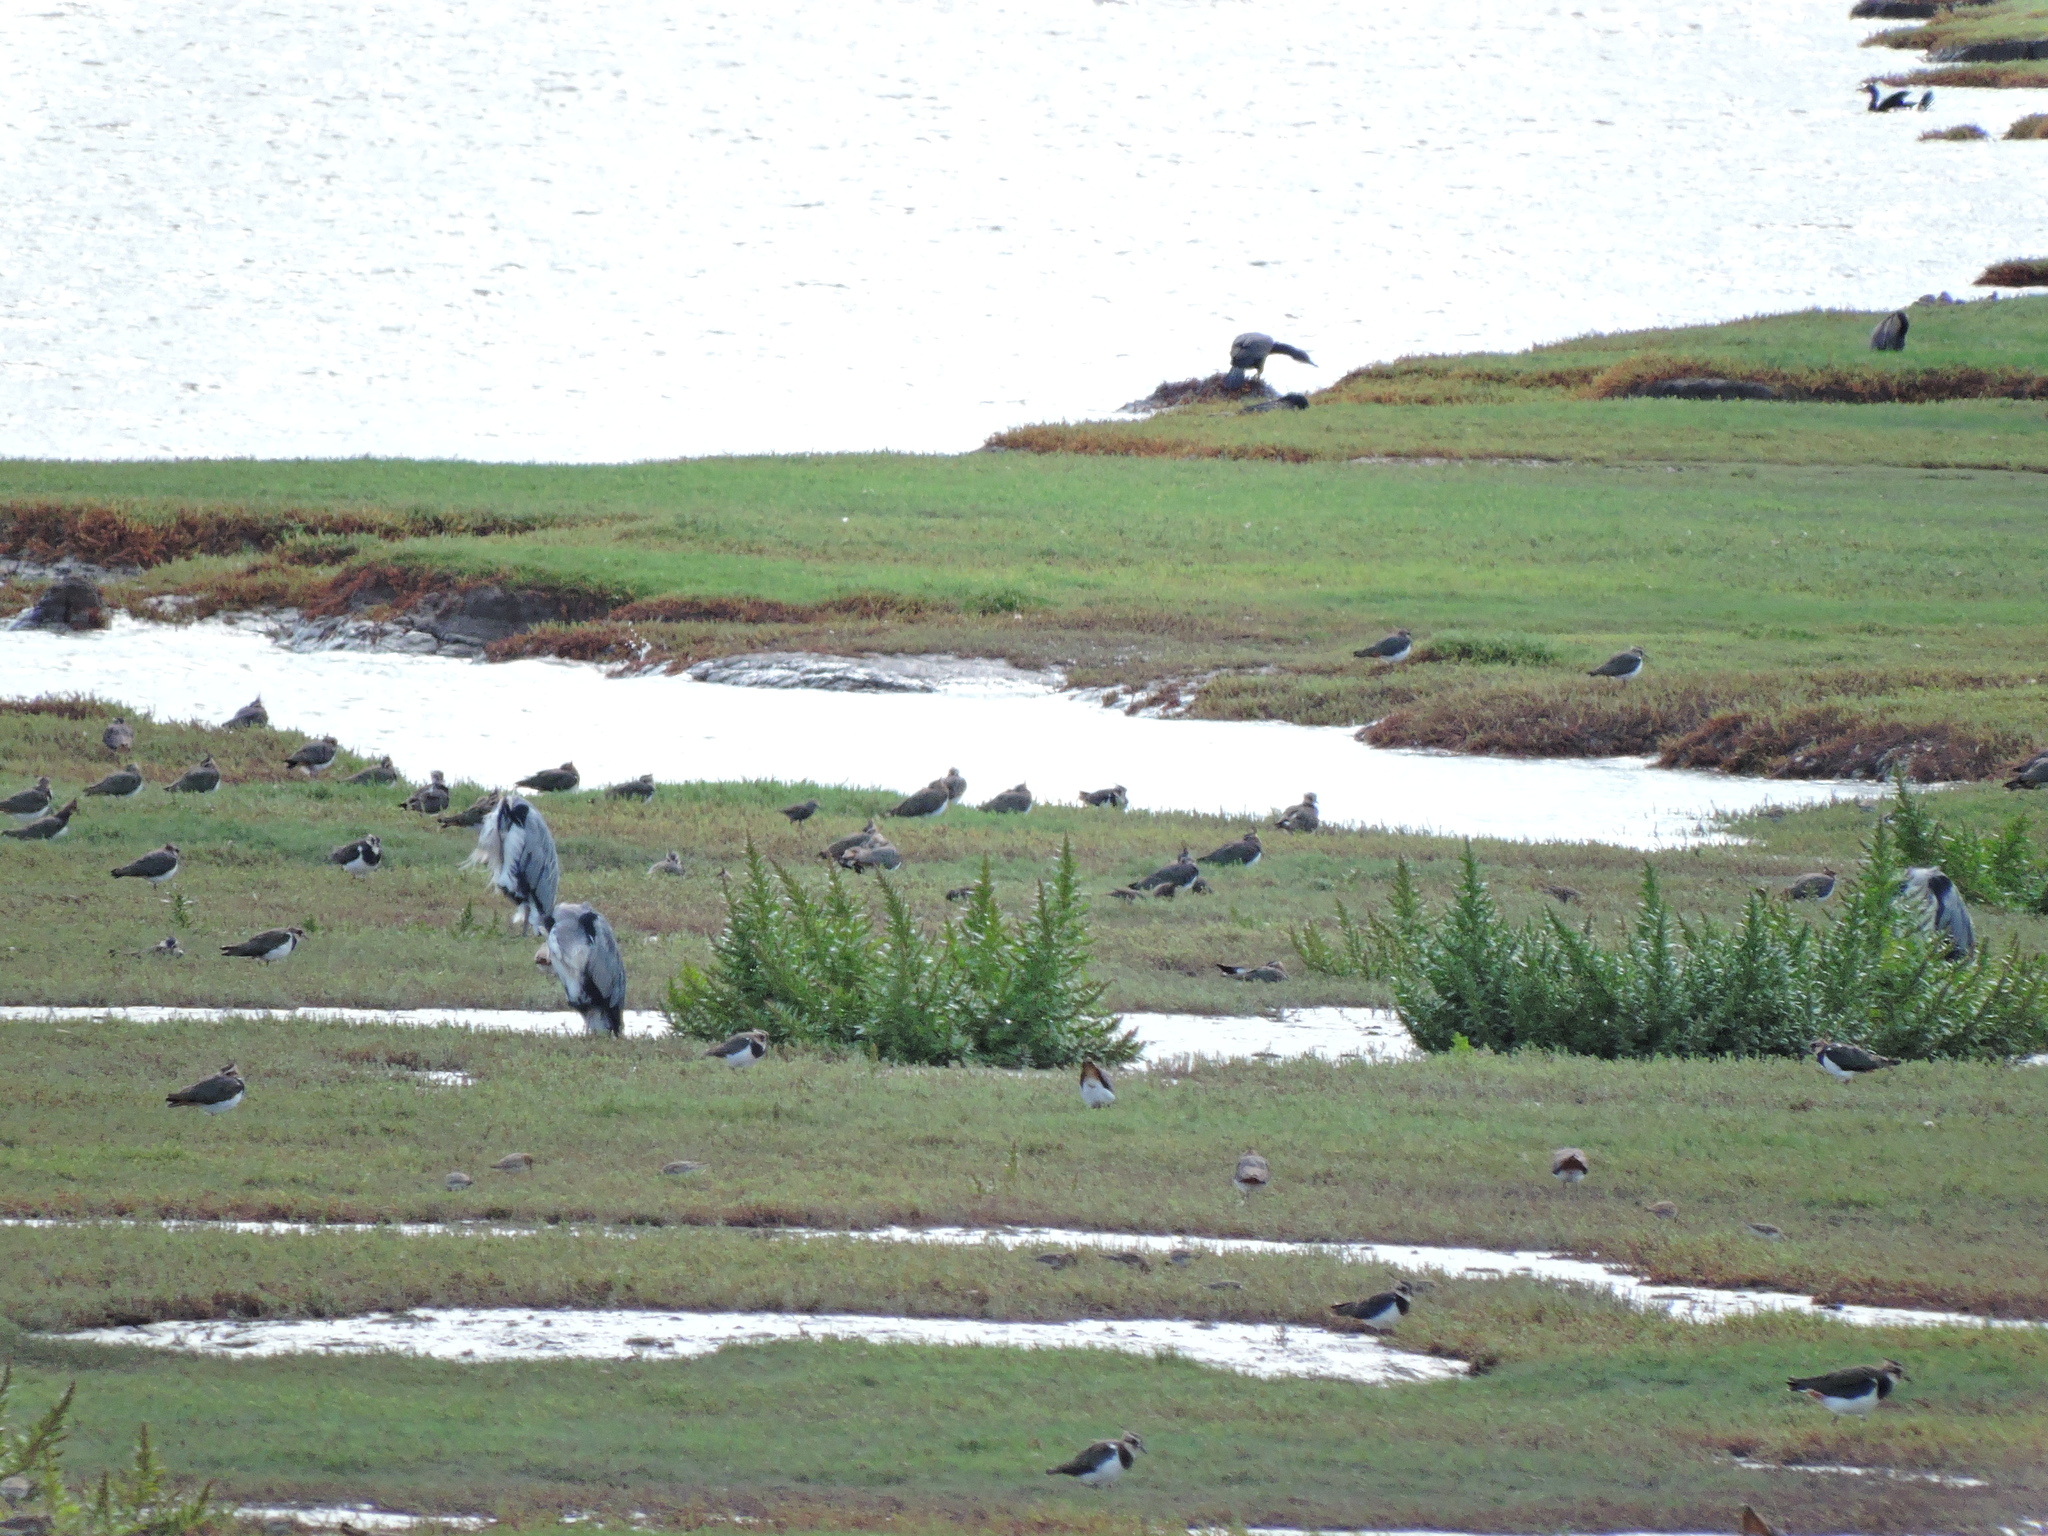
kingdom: Animalia
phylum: Chordata
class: Aves
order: Pelecaniformes
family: Ardeidae
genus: Ardea
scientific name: Ardea cinerea
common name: Grey heron
